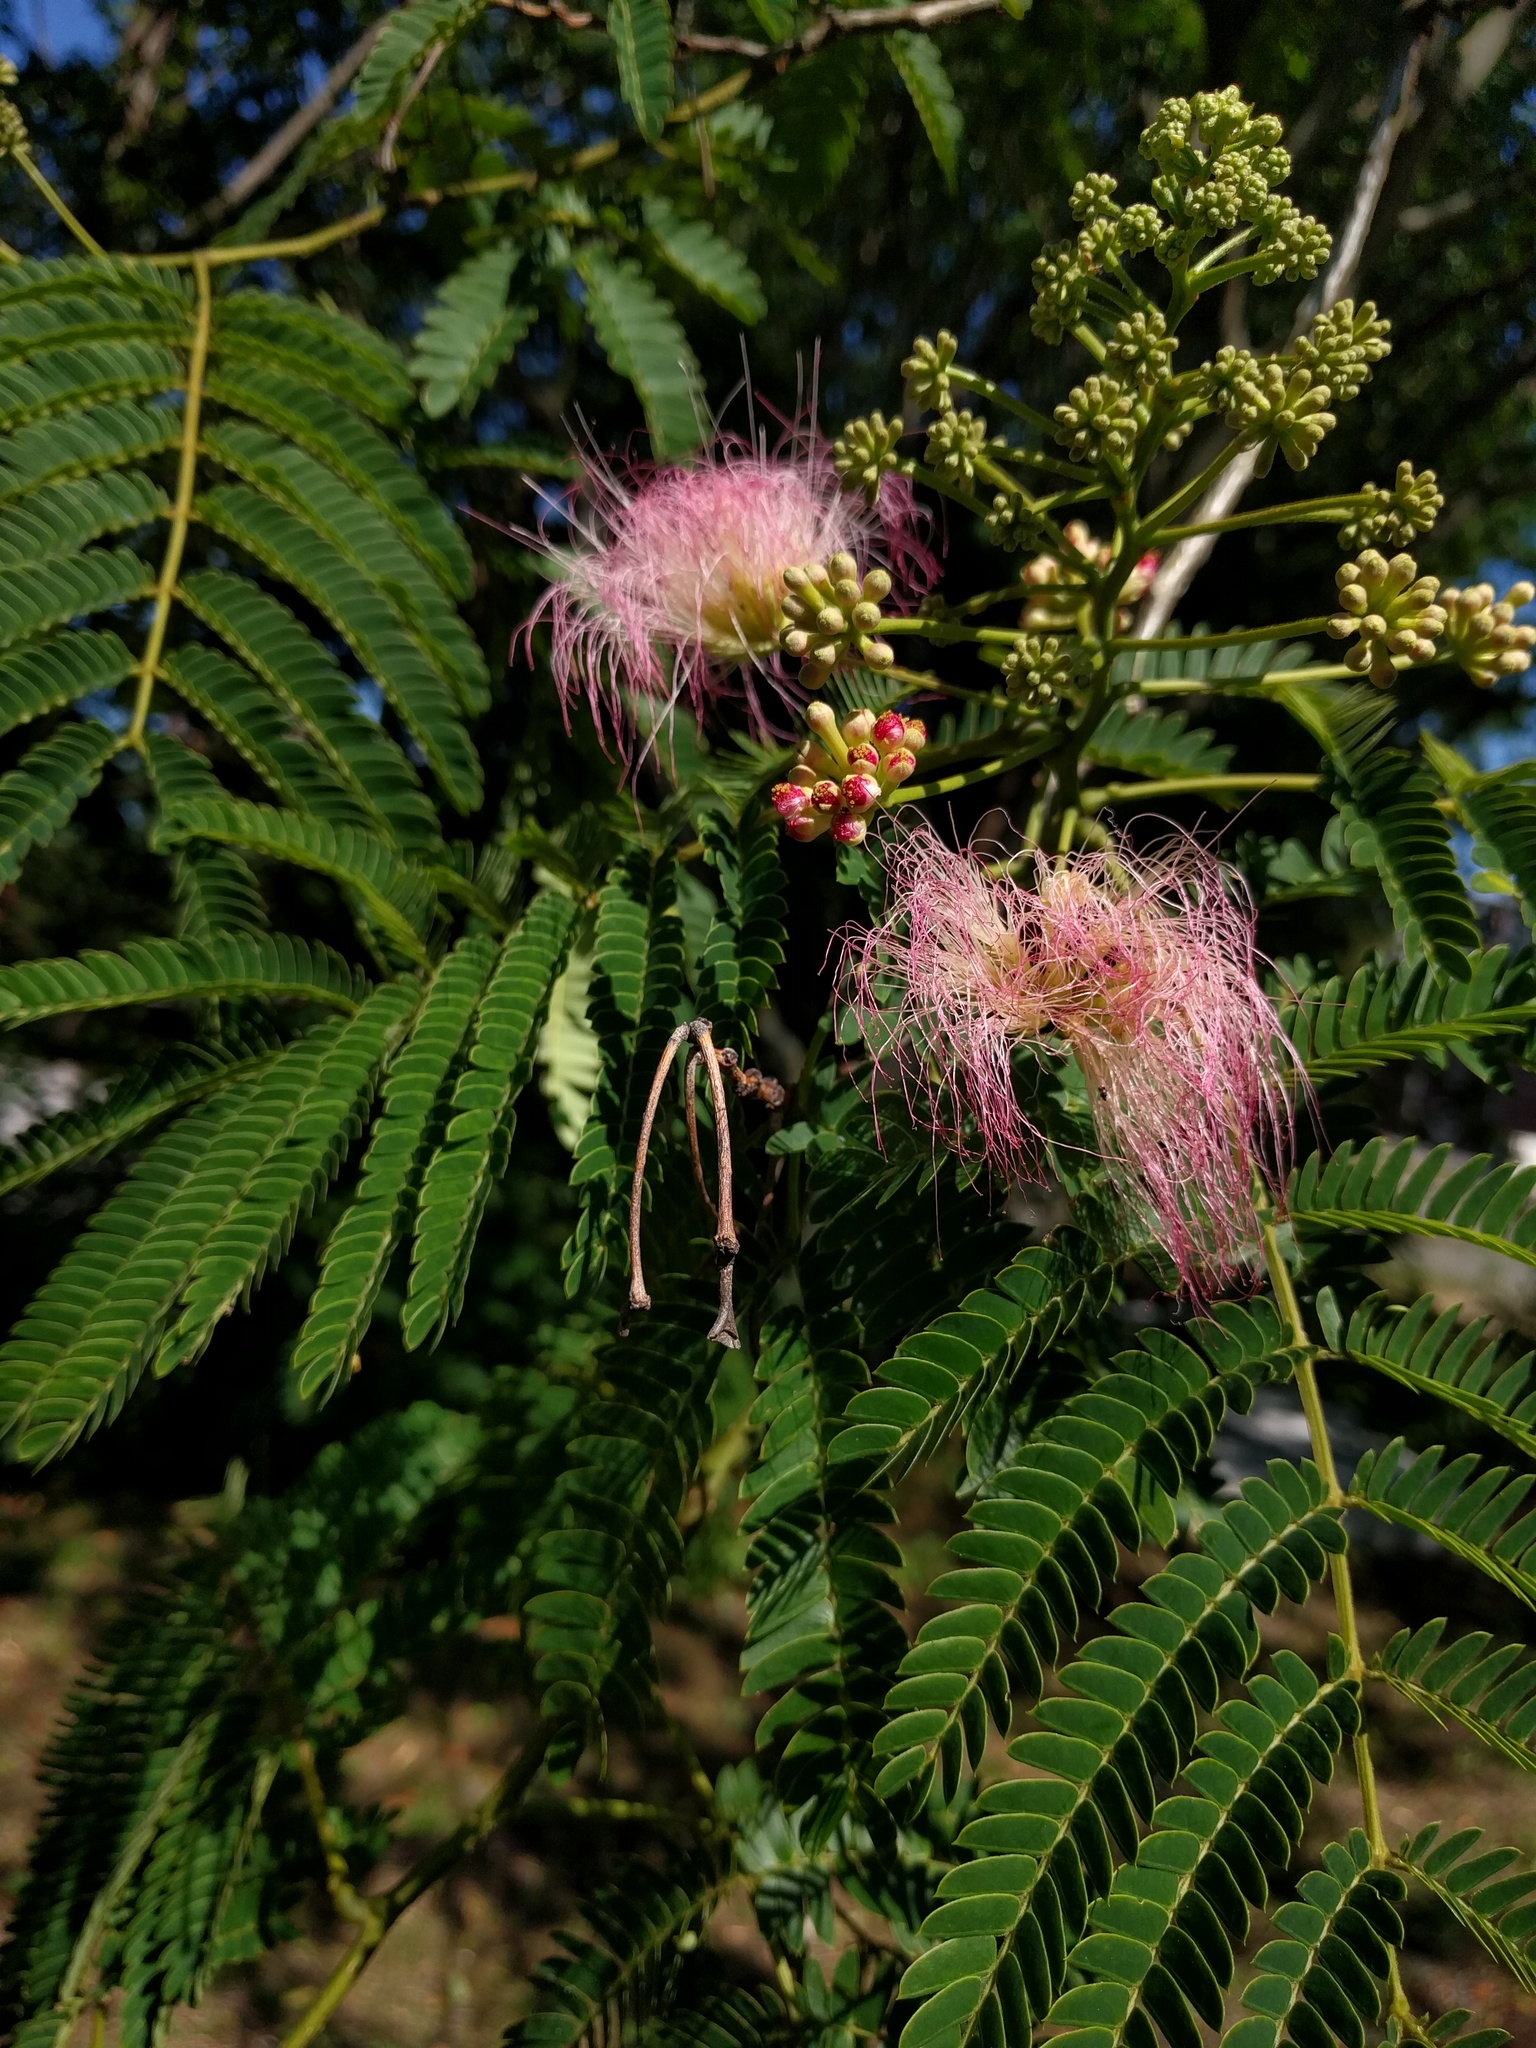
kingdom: Plantae
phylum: Tracheophyta
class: Magnoliopsida
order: Fabales
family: Fabaceae
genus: Albizia
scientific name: Albizia julibrissin
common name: Silktree
